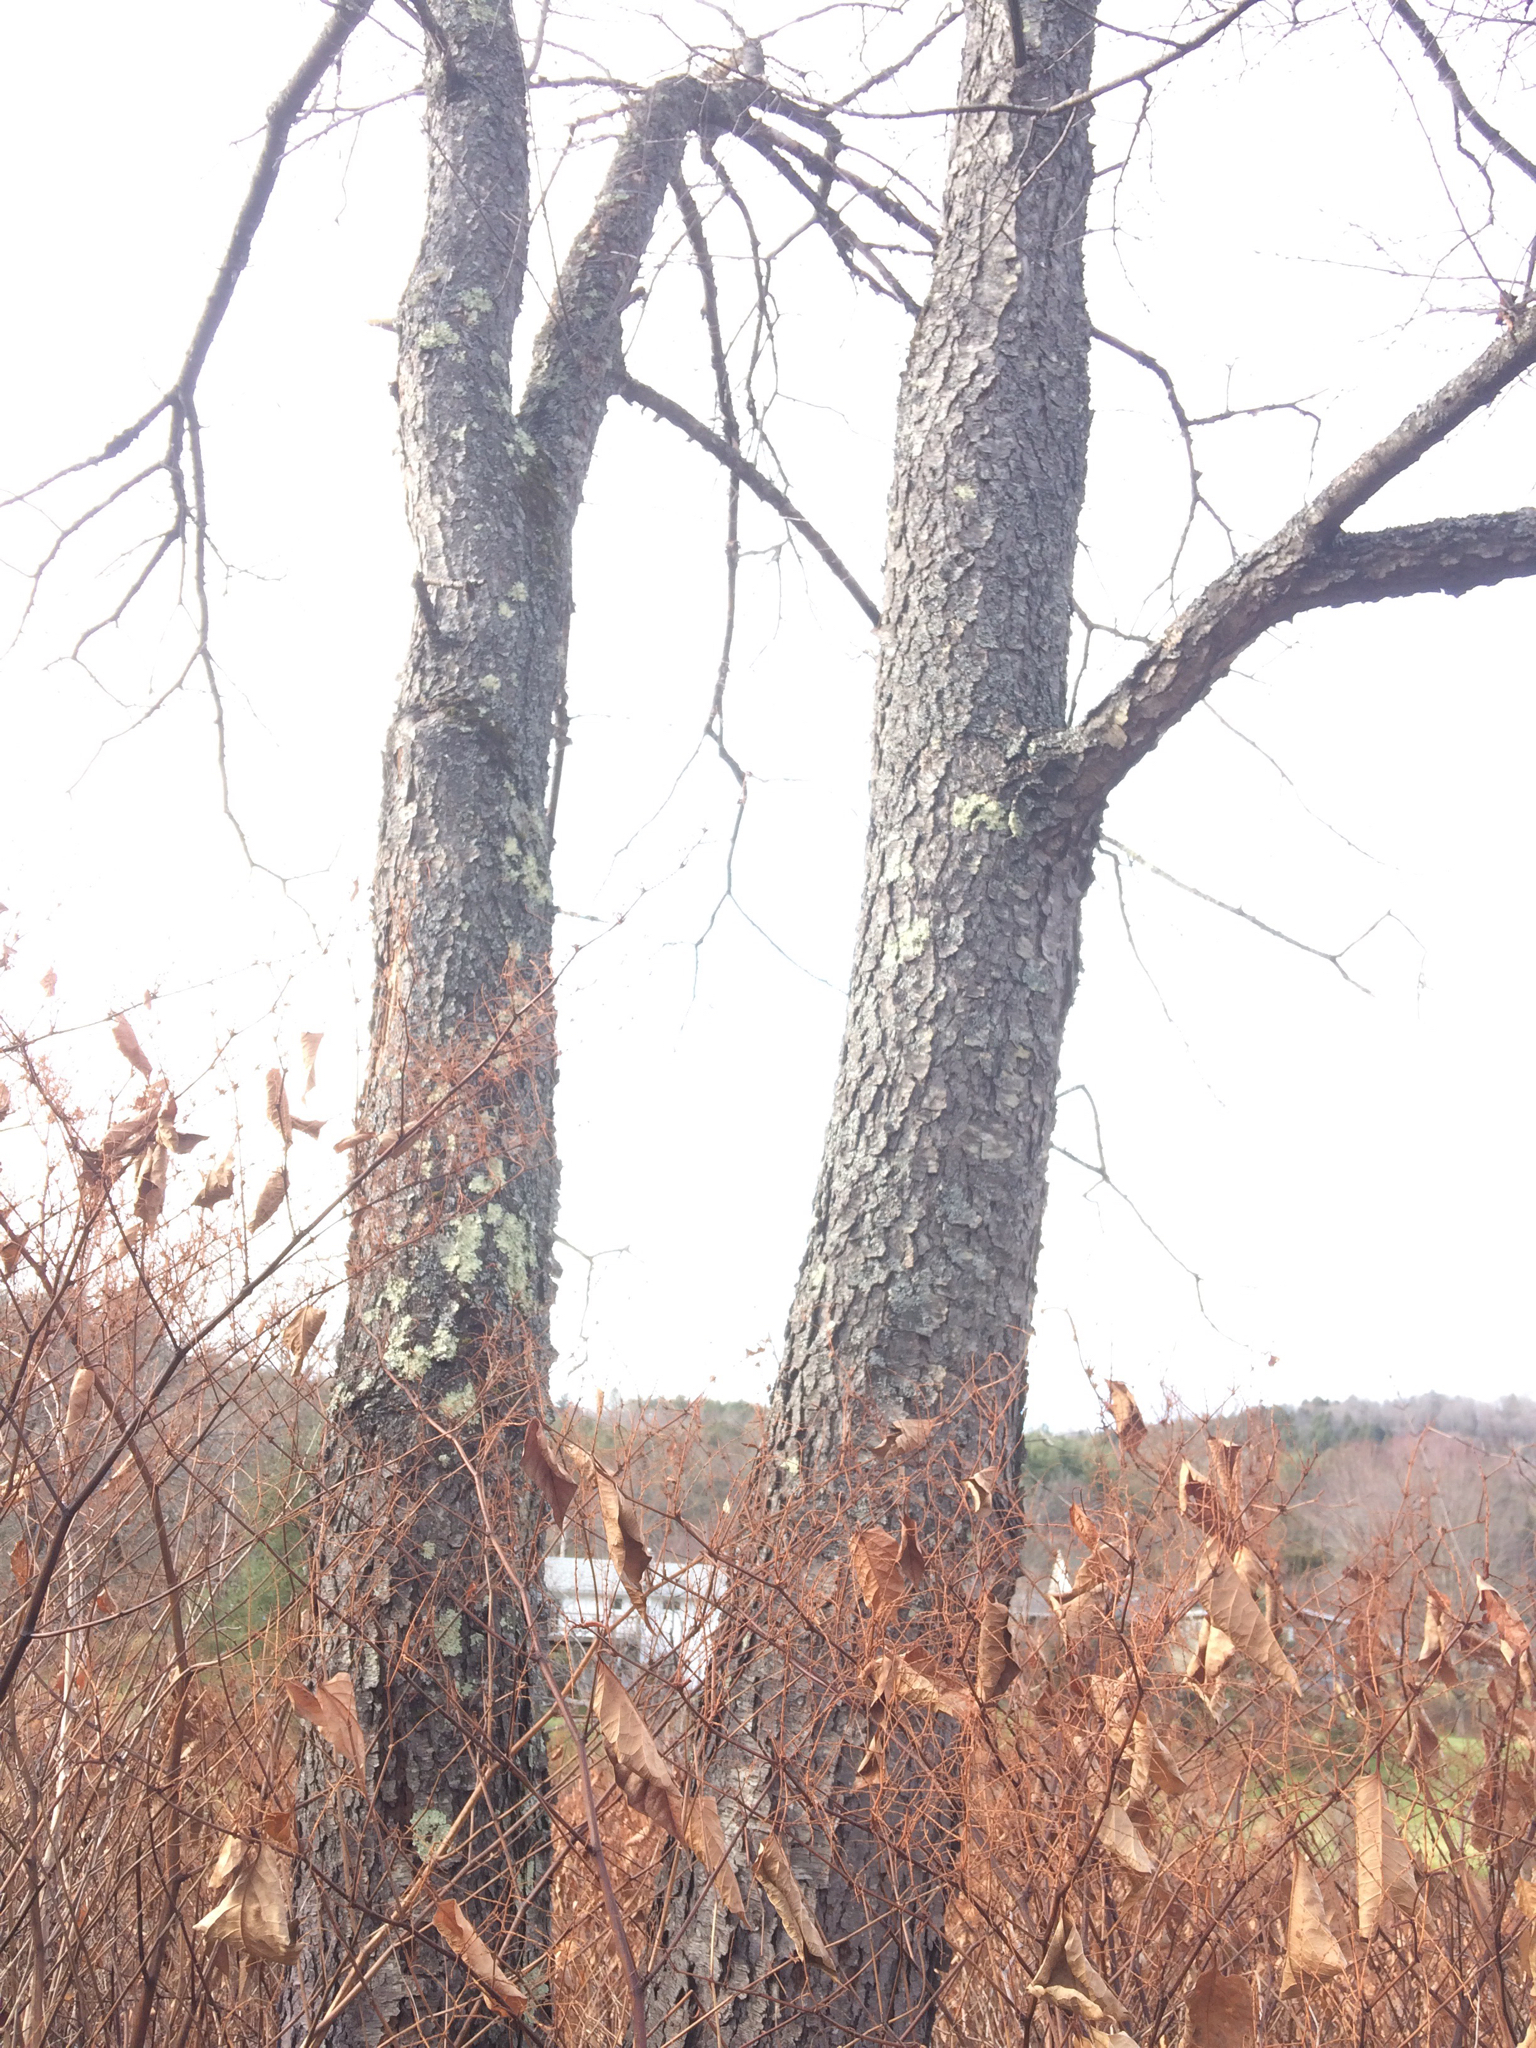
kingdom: Plantae
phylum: Tracheophyta
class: Magnoliopsida
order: Rosales
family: Rosaceae
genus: Prunus
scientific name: Prunus serotina
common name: Black cherry
